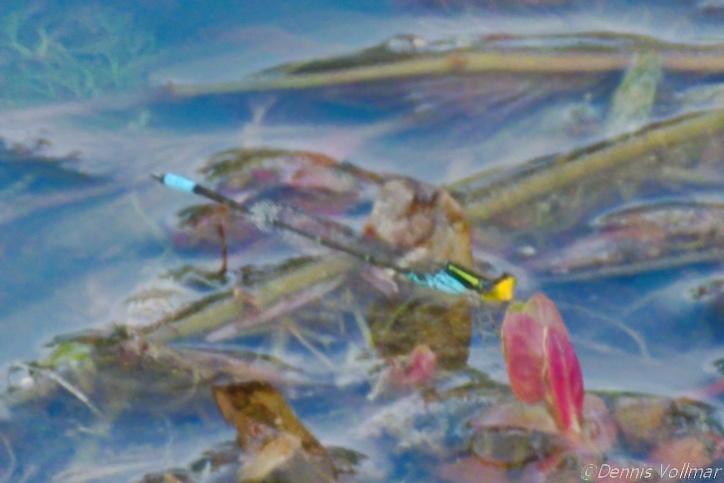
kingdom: Animalia
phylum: Arthropoda
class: Insecta
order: Odonata
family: Coenagrionidae
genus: Neoerythromma
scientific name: Neoerythromma cultellatum
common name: Caribbean yellowface
